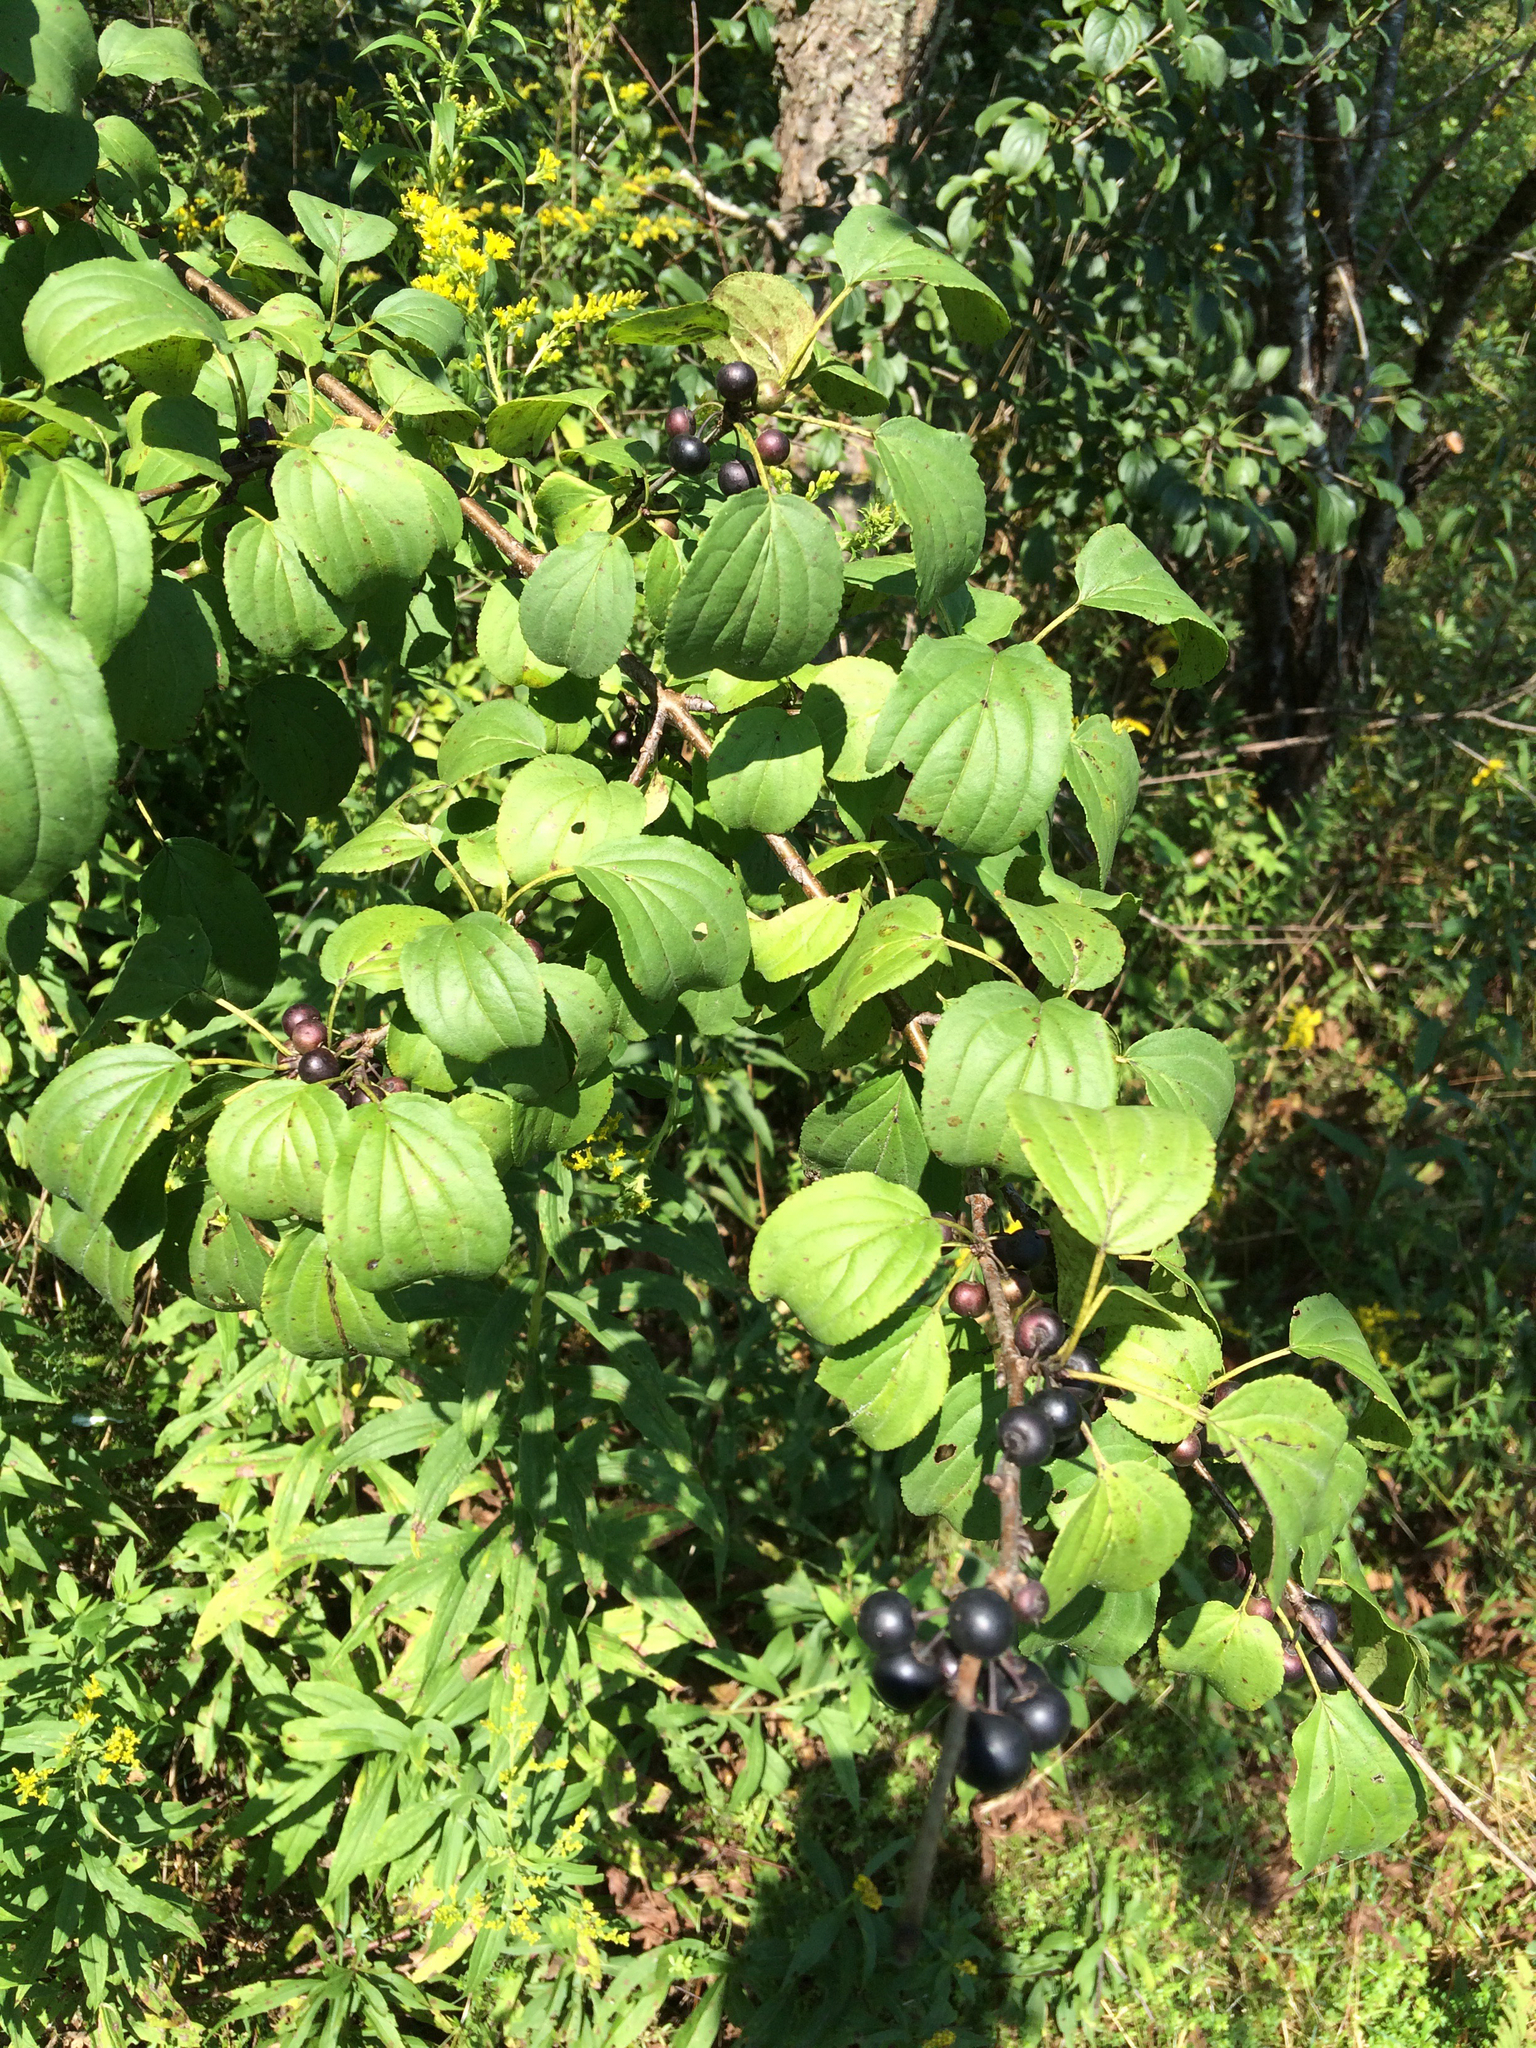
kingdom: Plantae
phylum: Tracheophyta
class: Magnoliopsida
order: Rosales
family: Rhamnaceae
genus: Rhamnus
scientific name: Rhamnus cathartica
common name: Common buckthorn
